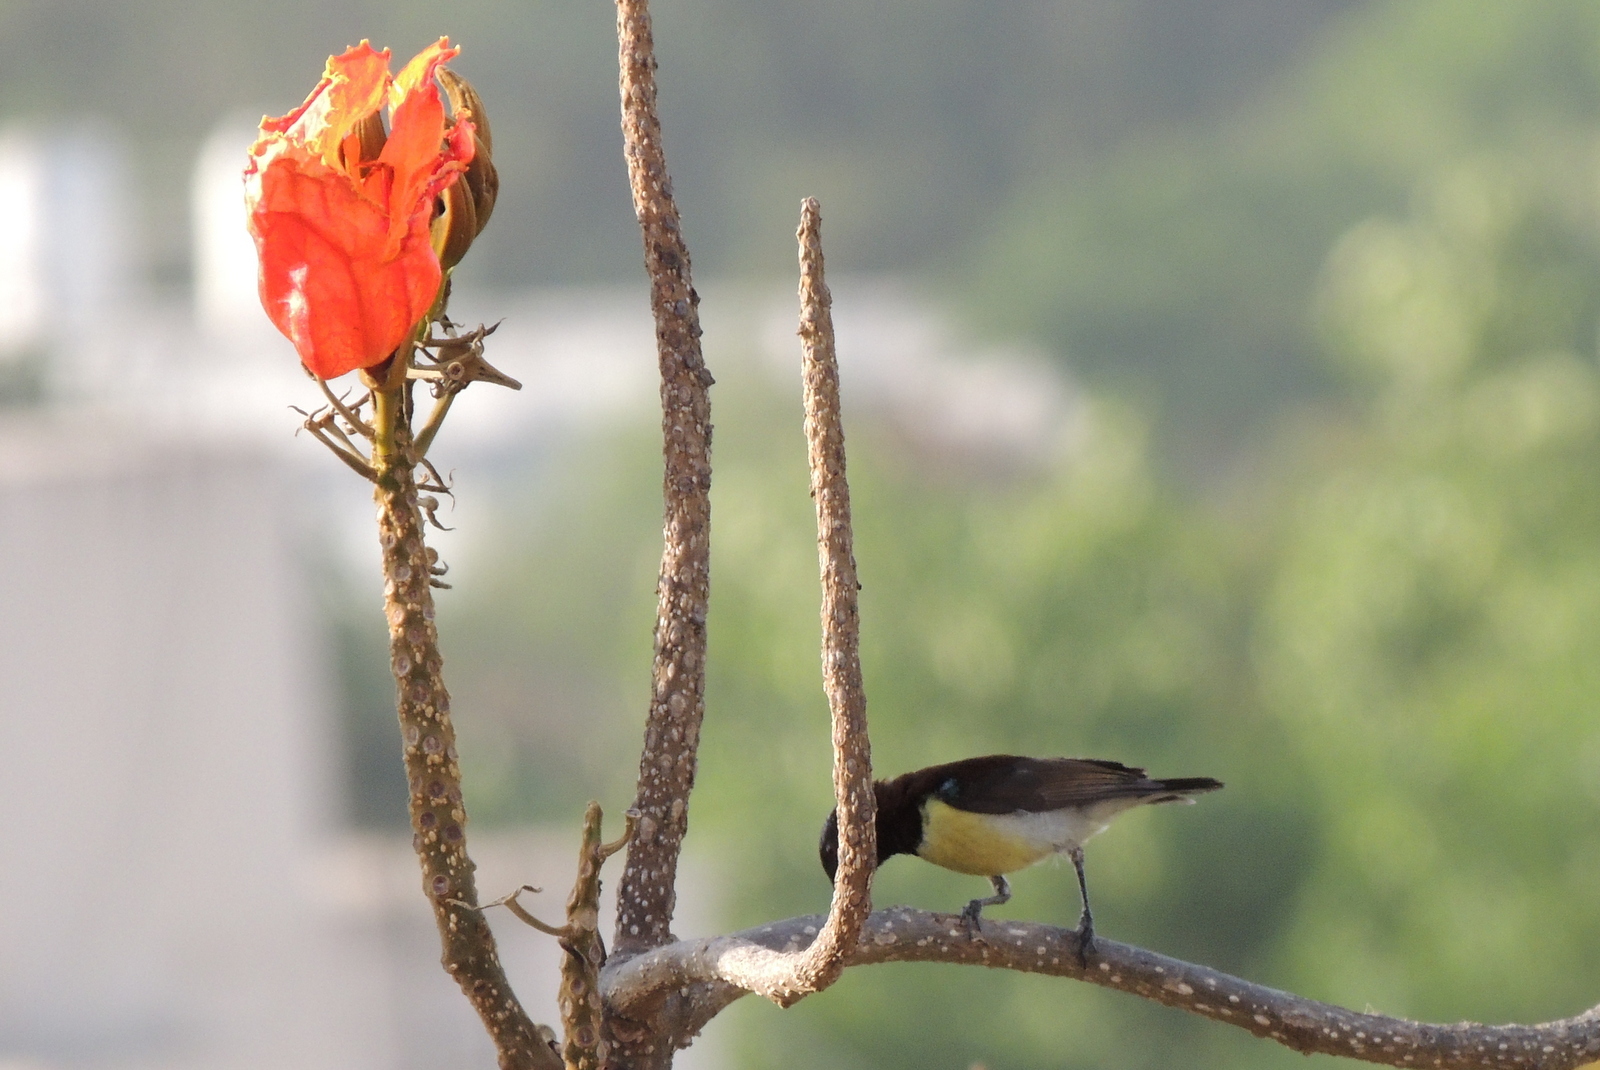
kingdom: Animalia
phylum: Chordata
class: Aves
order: Passeriformes
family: Nectariniidae
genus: Leptocoma
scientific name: Leptocoma zeylonica
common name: Purple-rumped sunbird
